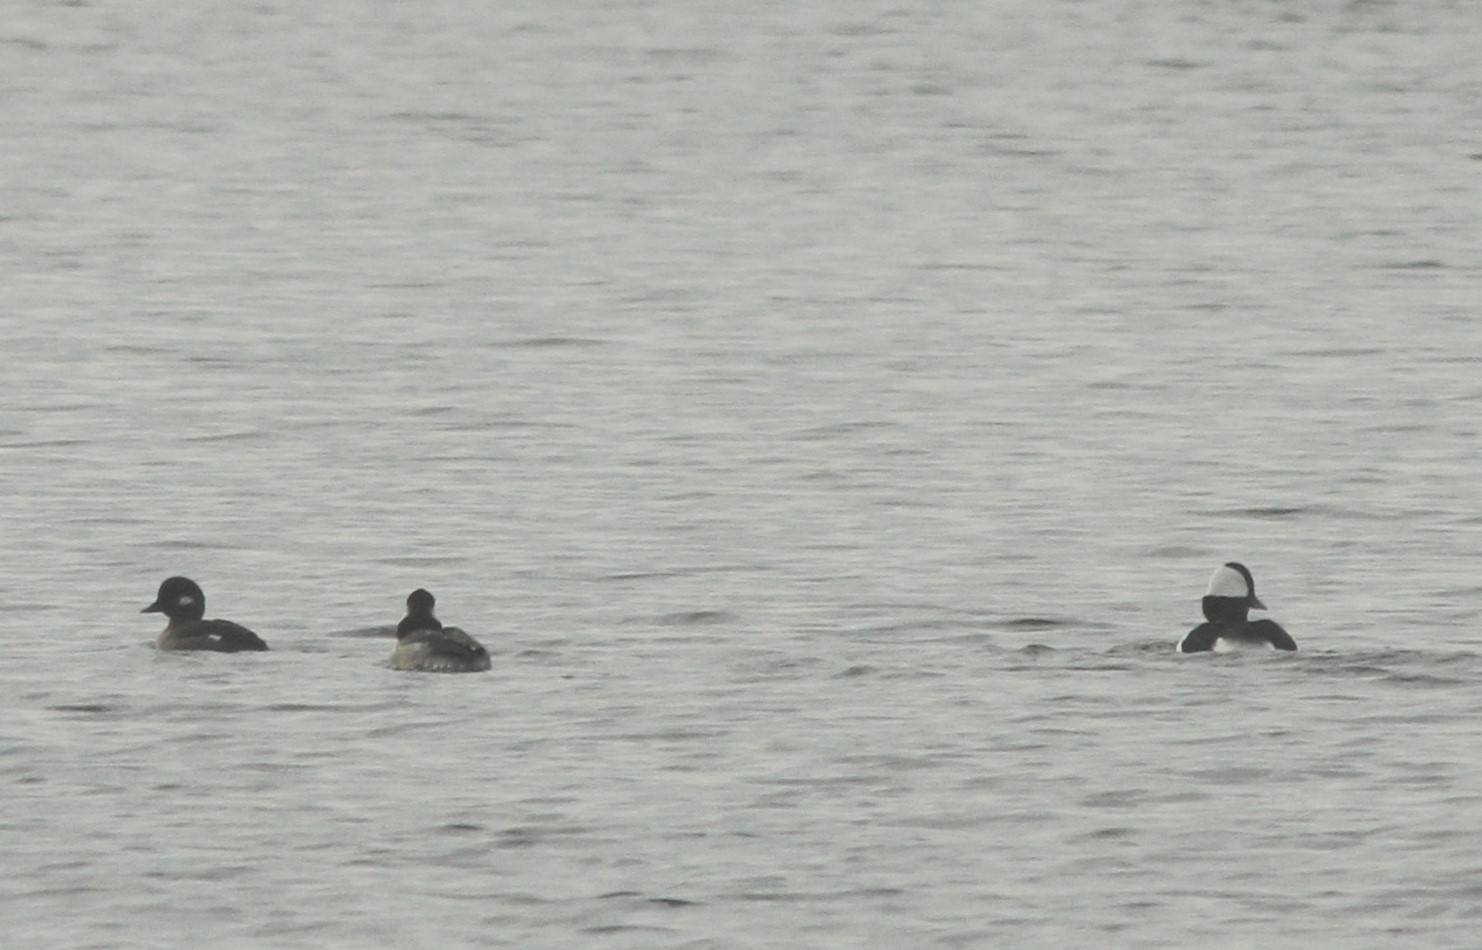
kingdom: Animalia
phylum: Chordata
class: Aves
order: Anseriformes
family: Anatidae
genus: Bucephala
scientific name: Bucephala albeola
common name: Bufflehead
